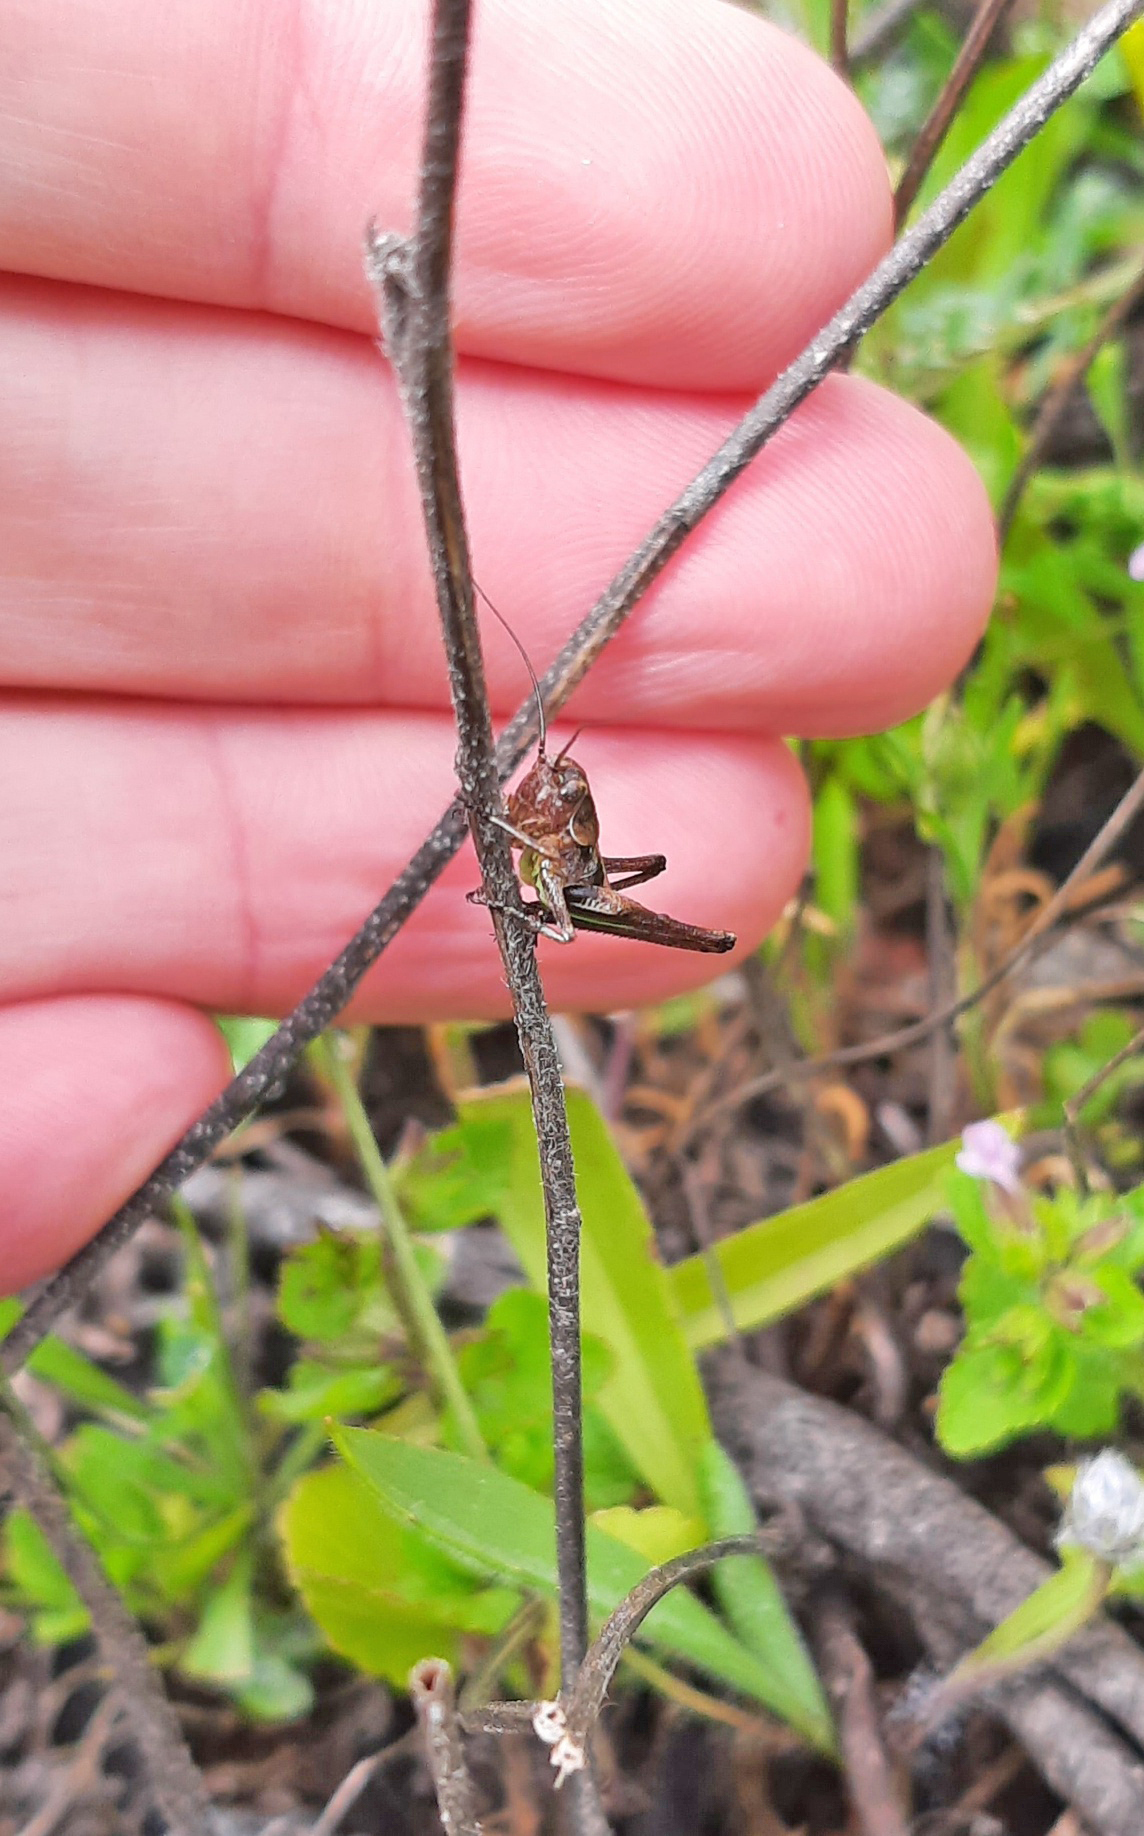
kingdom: Animalia
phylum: Arthropoda
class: Insecta
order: Orthoptera
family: Tettigoniidae
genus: Decticus
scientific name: Decticus albifrons
